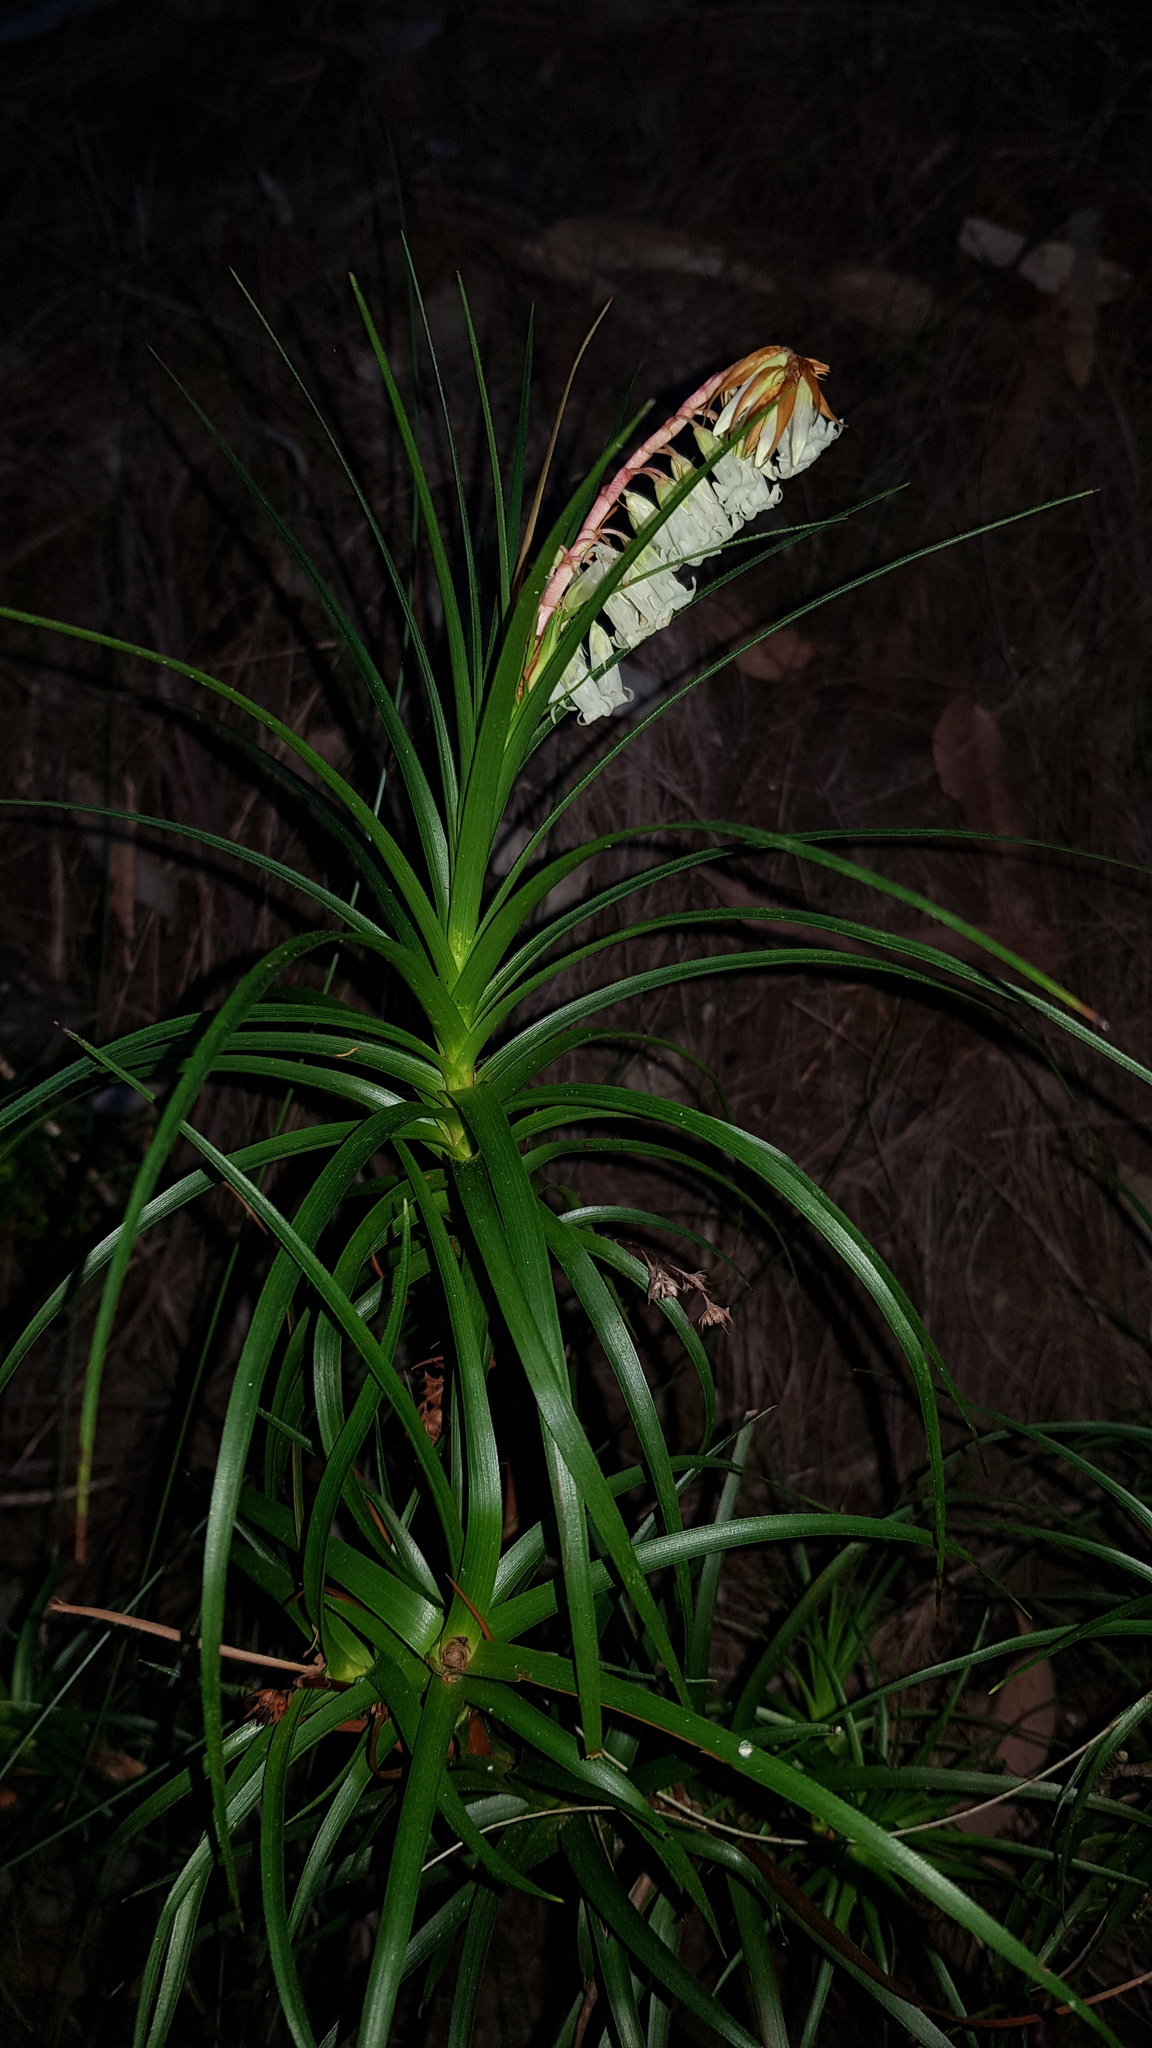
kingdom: Plantae
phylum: Tracheophyta
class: Magnoliopsida
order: Ericales
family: Ericaceae
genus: Dracophyllum
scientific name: Dracophyllum secundum
